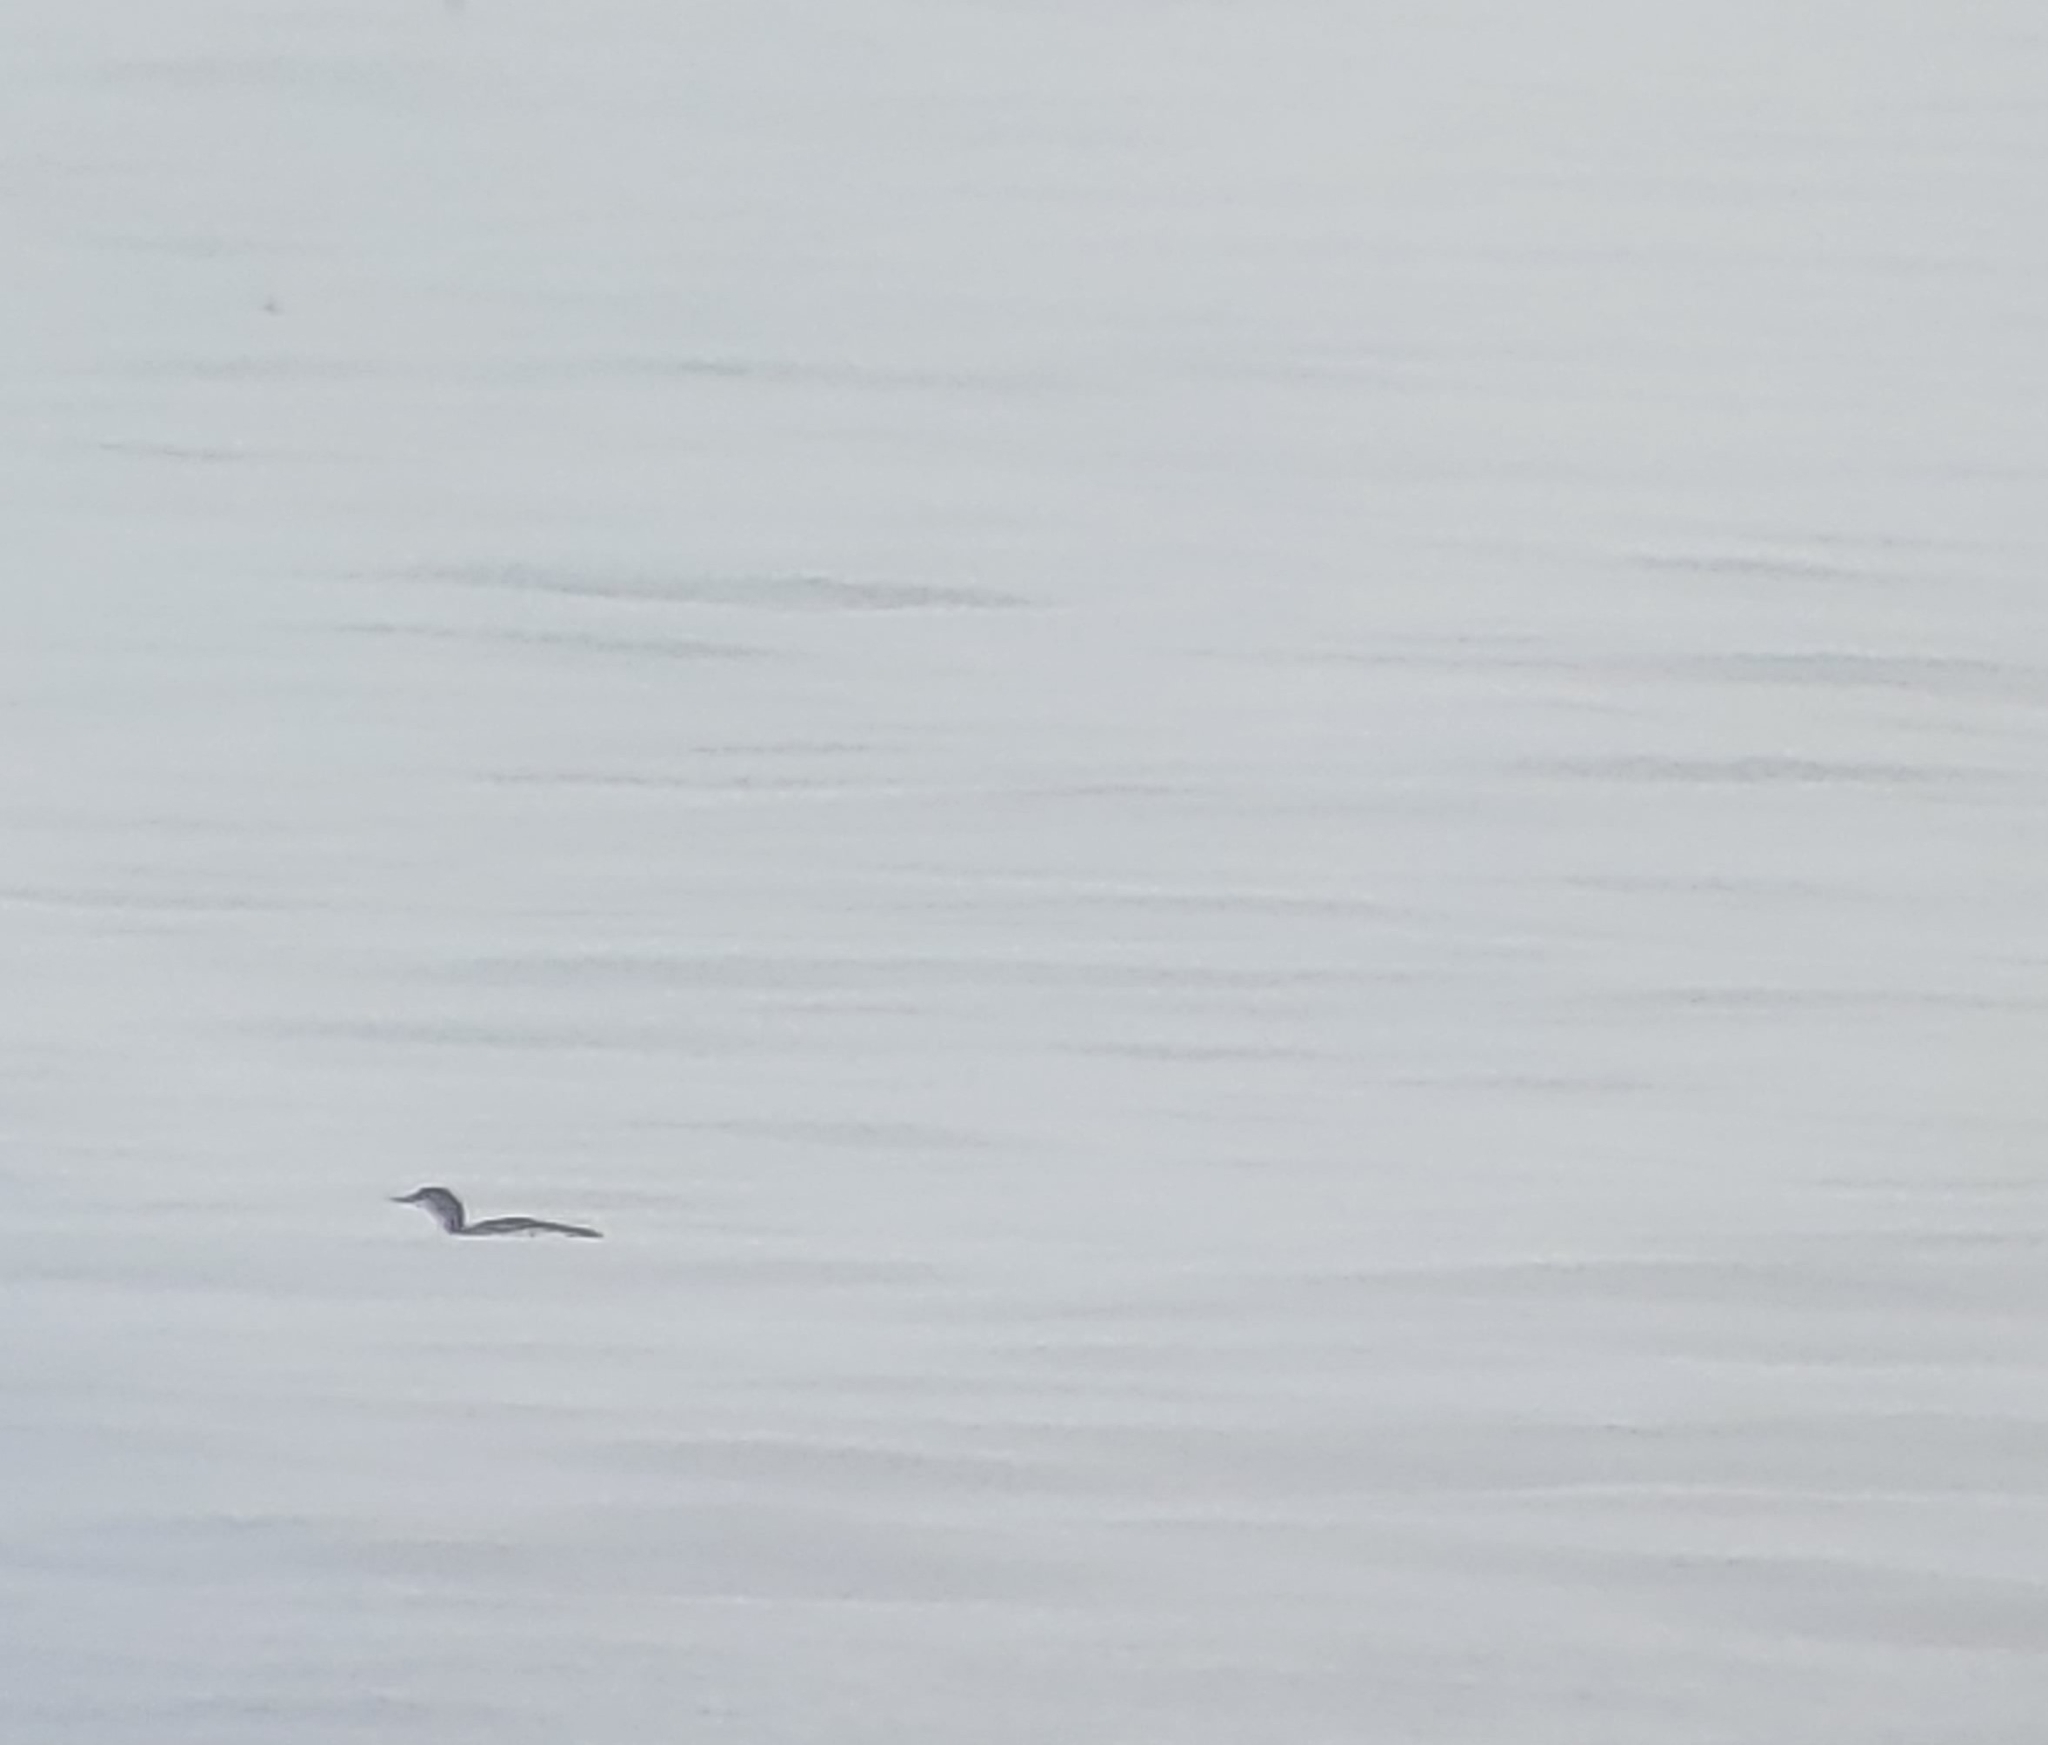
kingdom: Animalia
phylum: Chordata
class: Aves
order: Gaviiformes
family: Gaviidae
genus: Gavia
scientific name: Gavia stellata
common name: Red-throated loon
